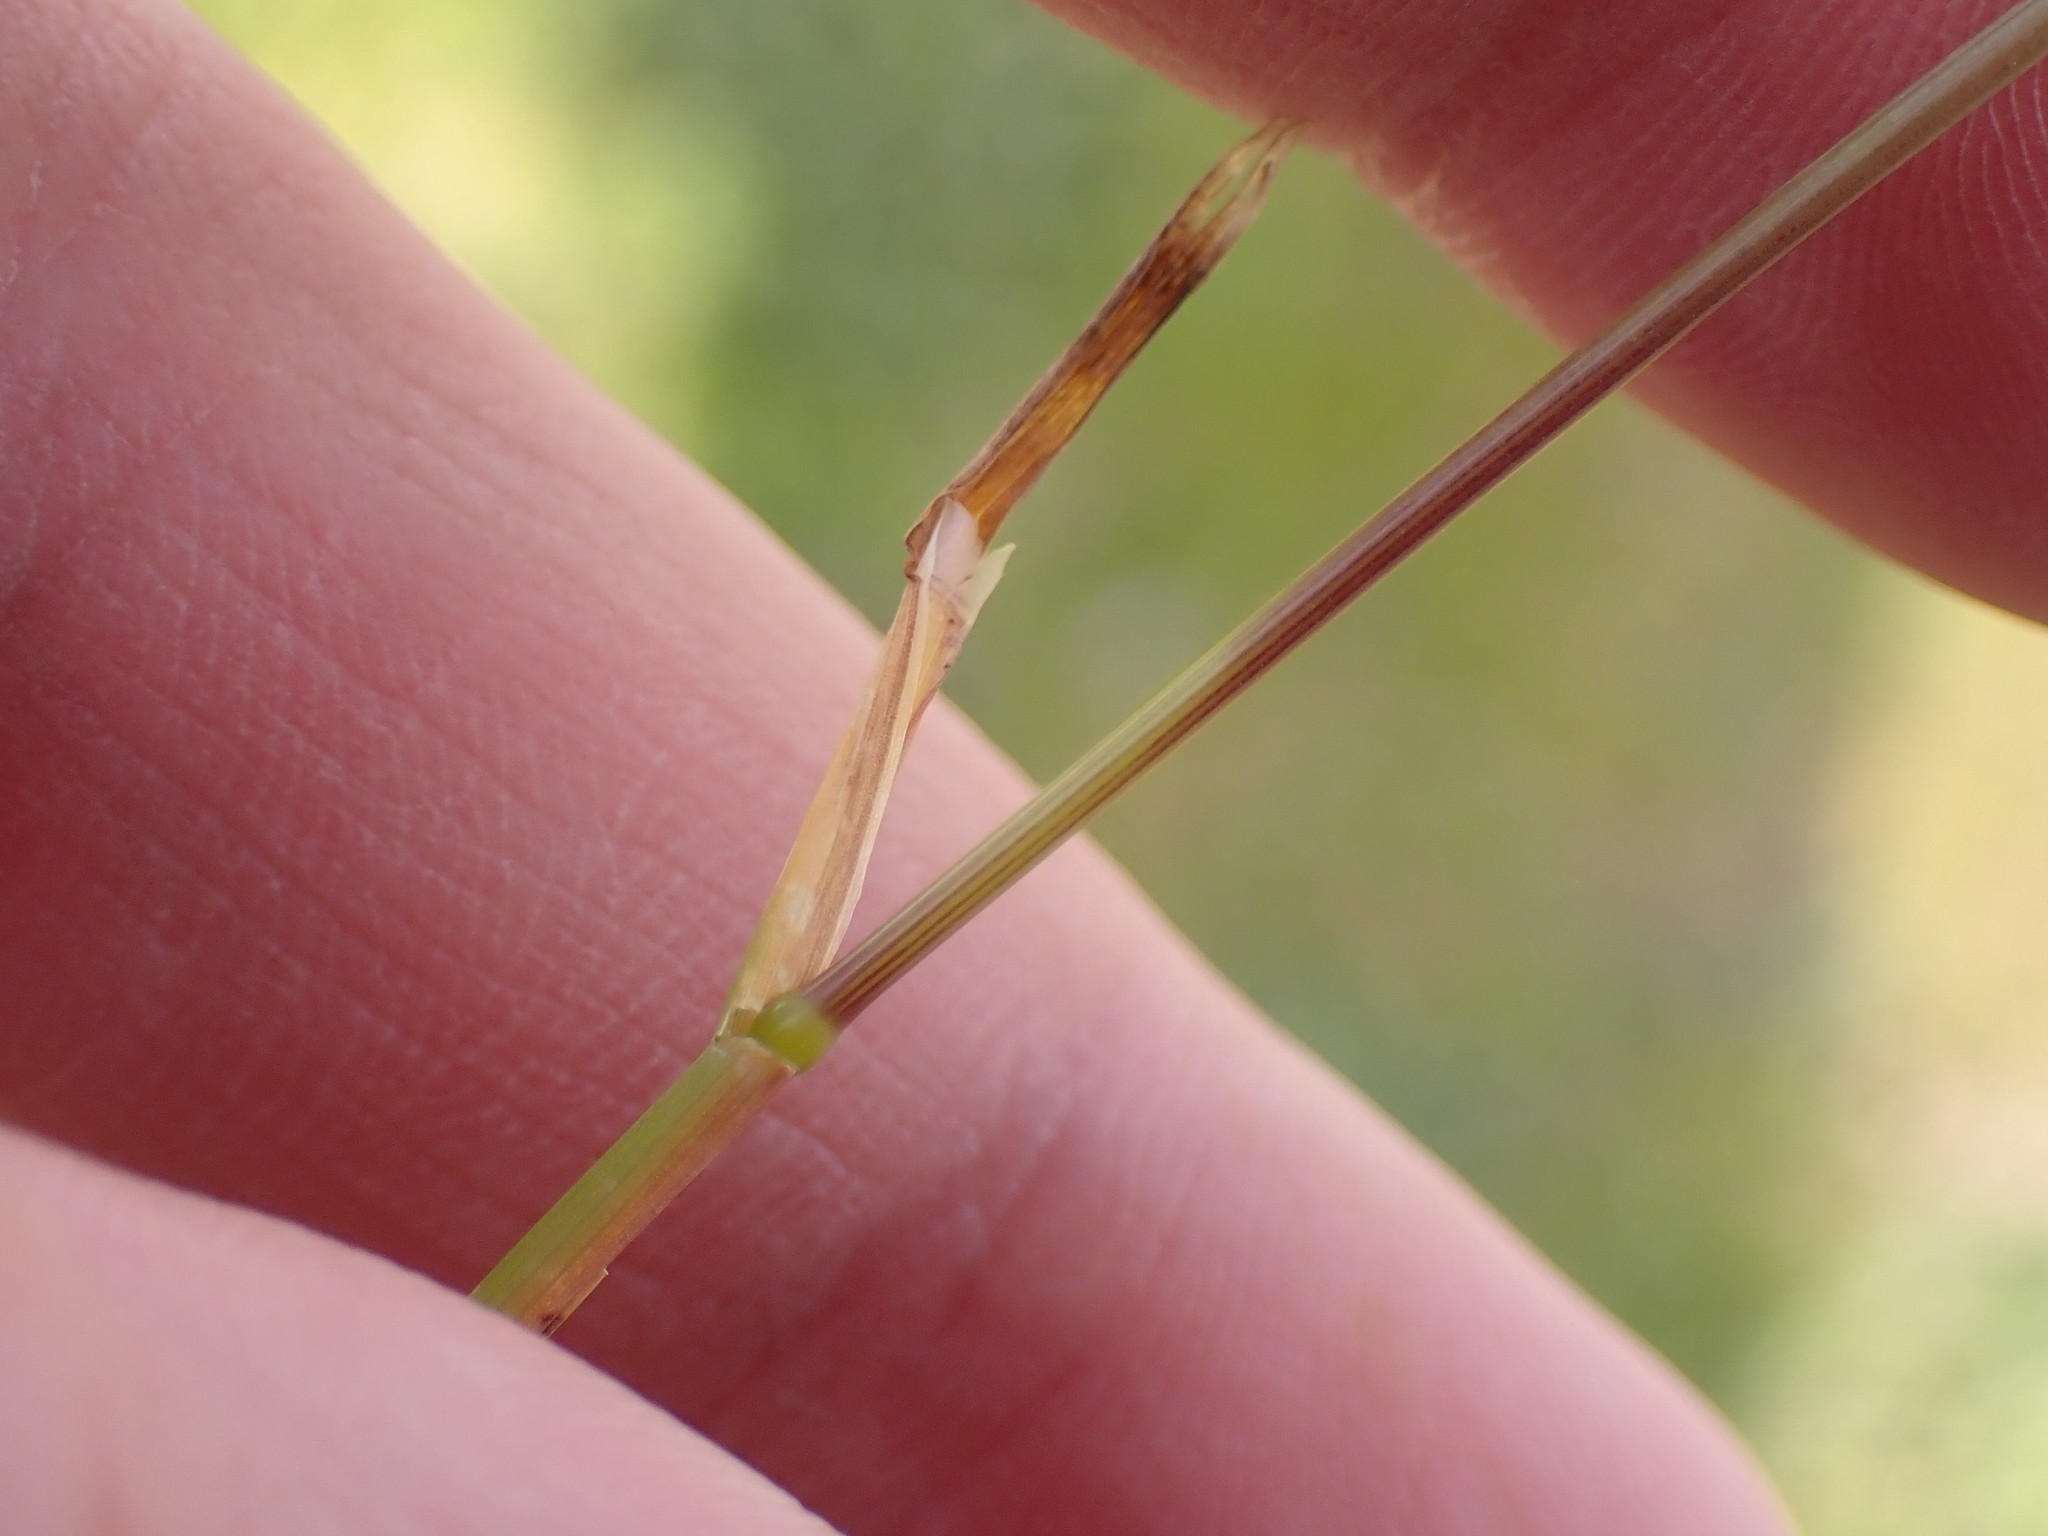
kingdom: Plantae
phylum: Tracheophyta
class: Liliopsida
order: Poales
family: Poaceae
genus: Poa
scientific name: Poa bulbosa
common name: Bulbous bluegrass
